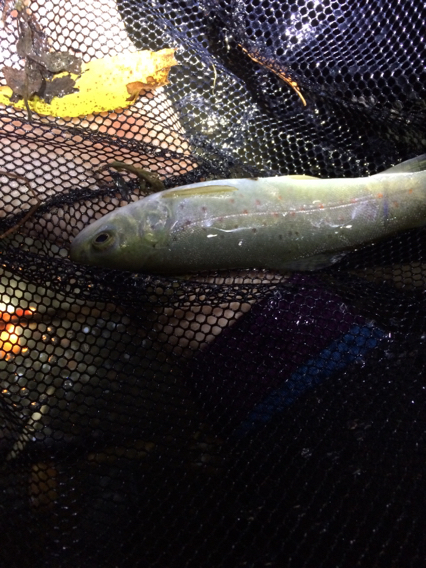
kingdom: Animalia
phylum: Chordata
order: Salmoniformes
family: Salmonidae
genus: Salmo
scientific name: Salmo trutta
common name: Brown trout
